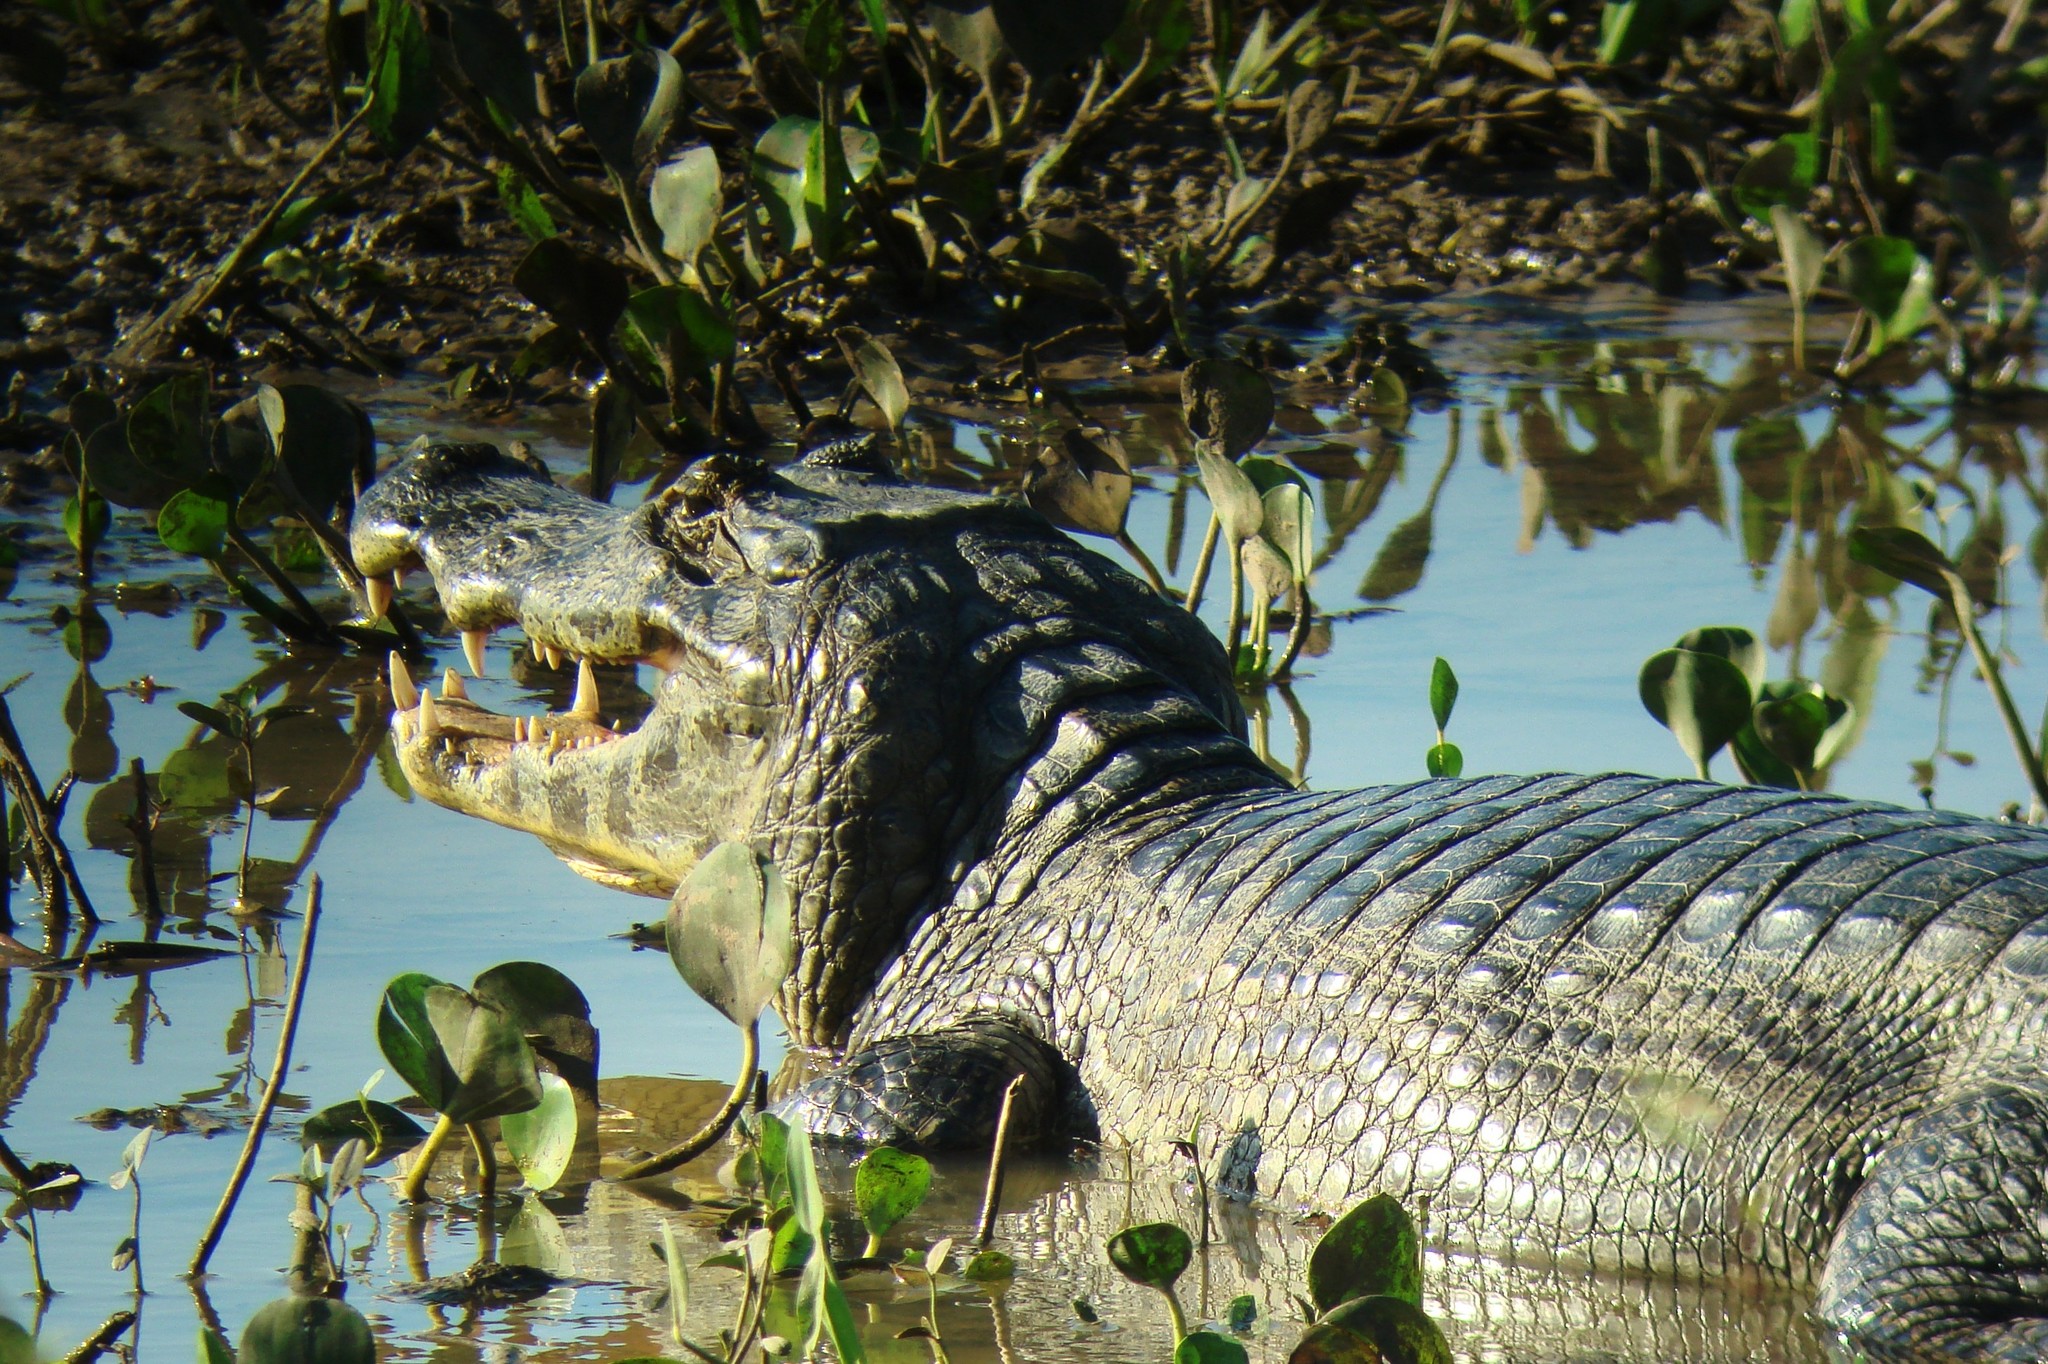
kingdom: Animalia
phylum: Chordata
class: Crocodylia
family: Alligatoridae
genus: Caiman
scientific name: Caiman yacare
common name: Yacare caiman
